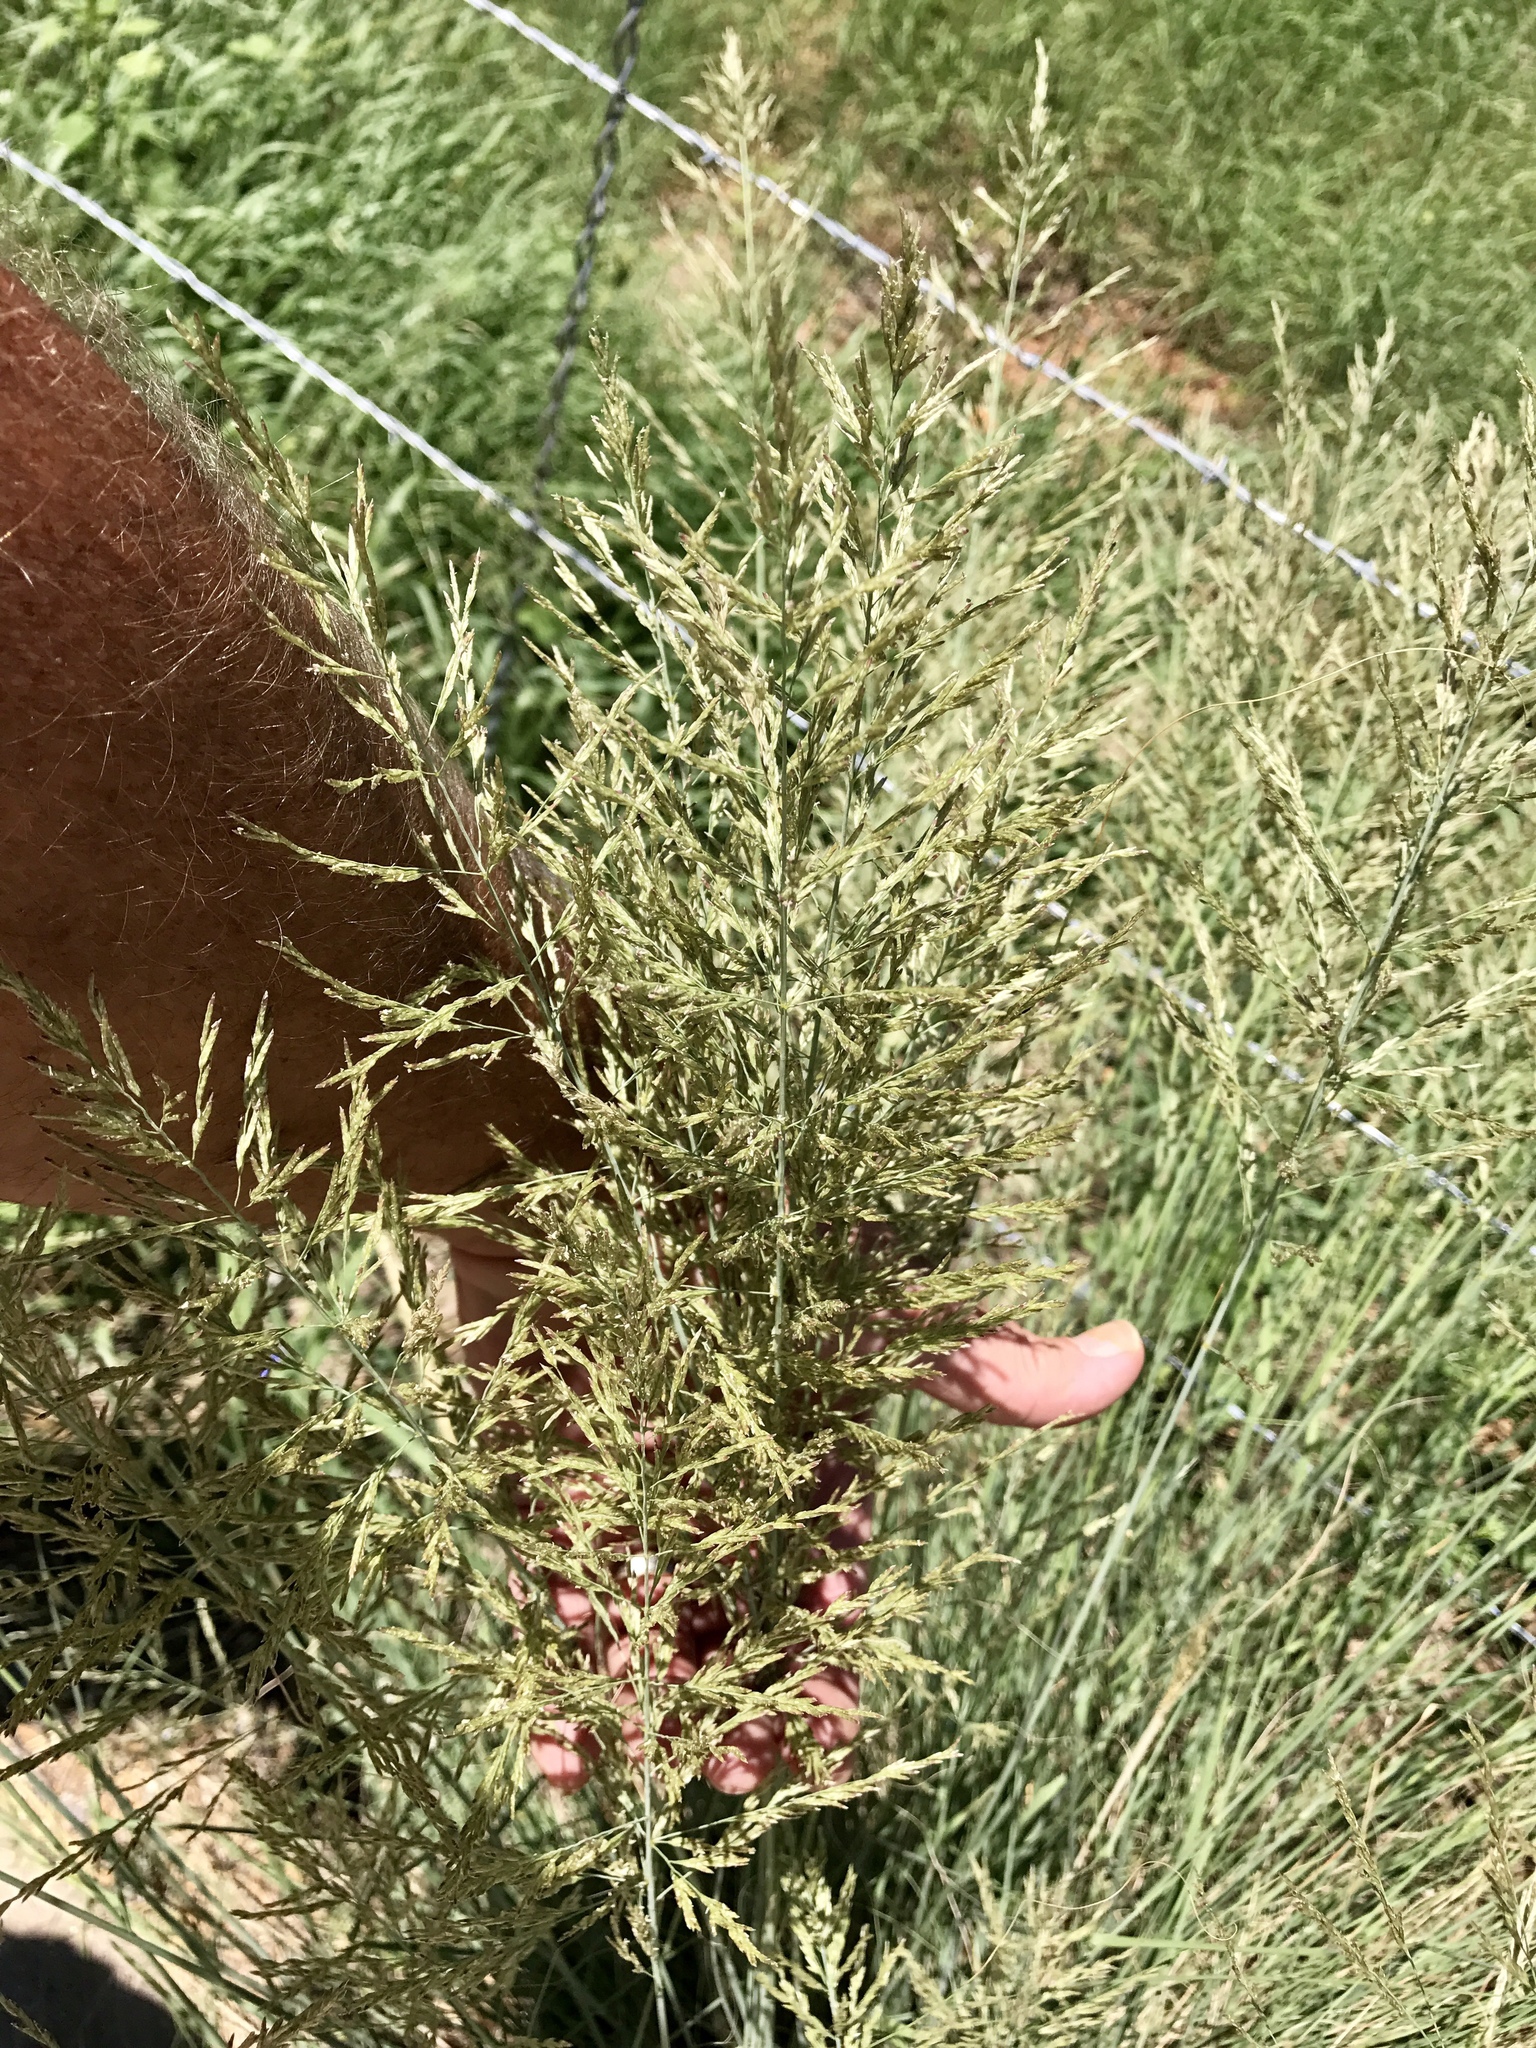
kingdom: Plantae
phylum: Tracheophyta
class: Liliopsida
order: Poales
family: Poaceae
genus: Eragrostis
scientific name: Eragrostis curvula
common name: African love-grass
